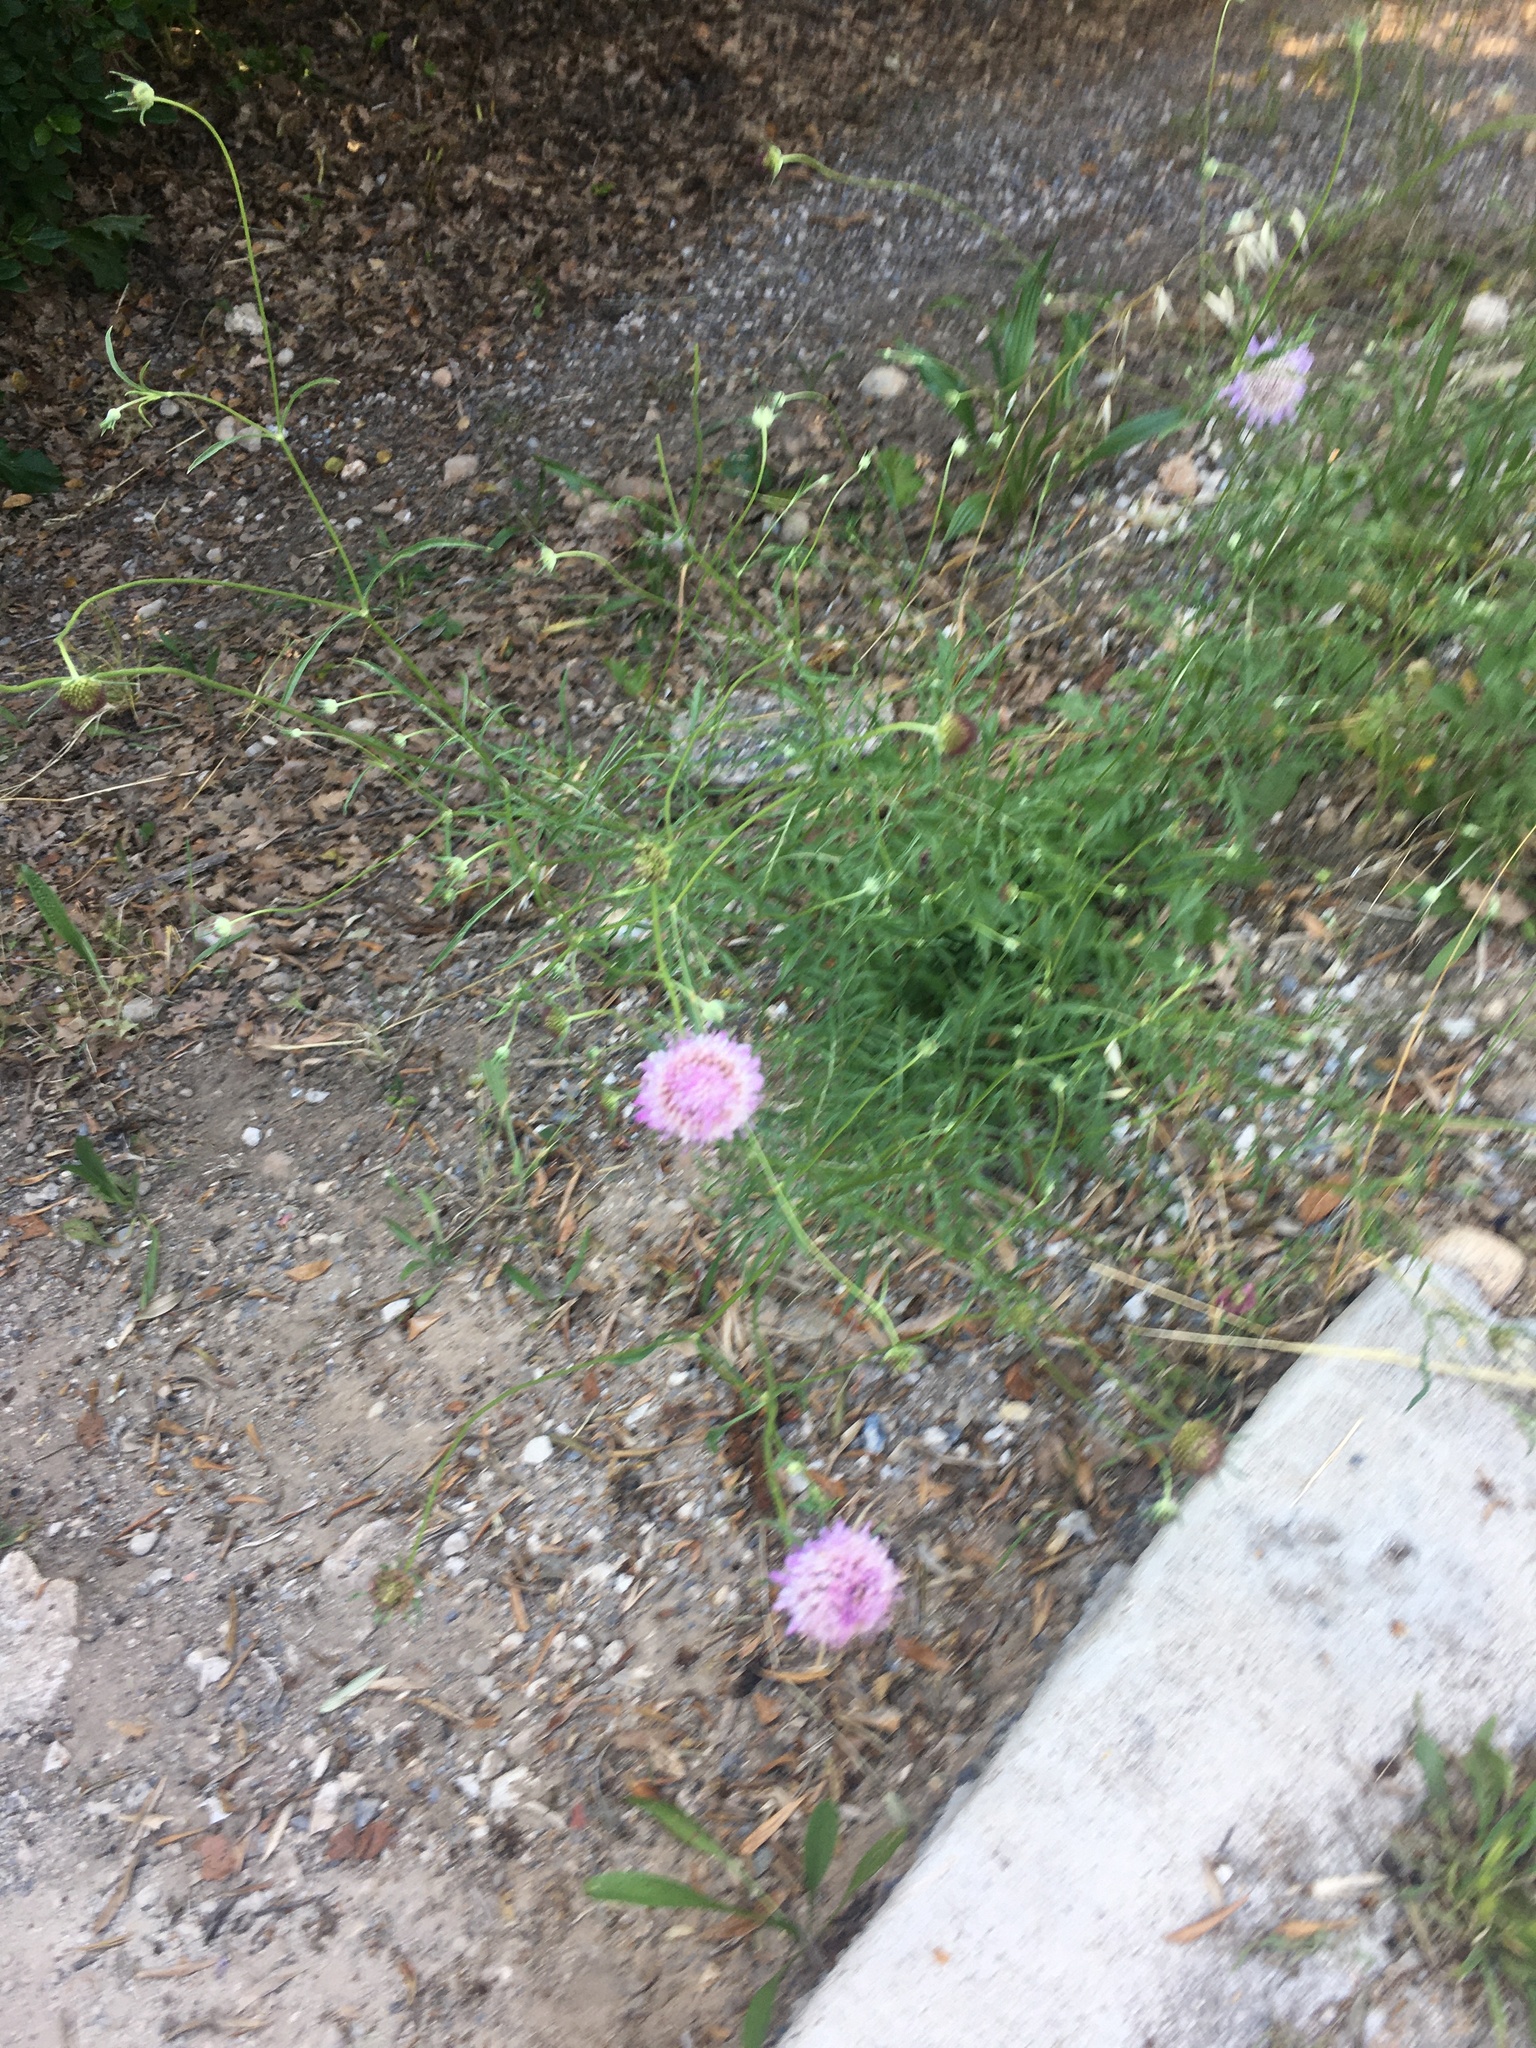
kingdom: Plantae
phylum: Tracheophyta
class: Magnoliopsida
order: Dipsacales
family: Caprifoliaceae
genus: Sixalix
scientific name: Sixalix atropurpurea
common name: Sweet scabious
